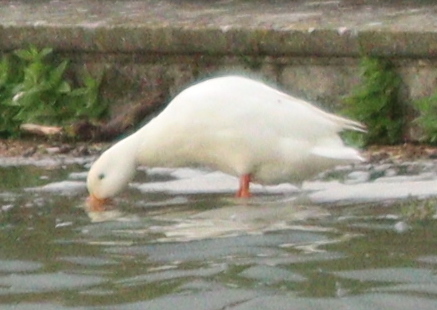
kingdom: Animalia
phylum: Chordata
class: Aves
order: Anseriformes
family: Anatidae
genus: Anas
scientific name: Anas platyrhynchos
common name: Mallard
